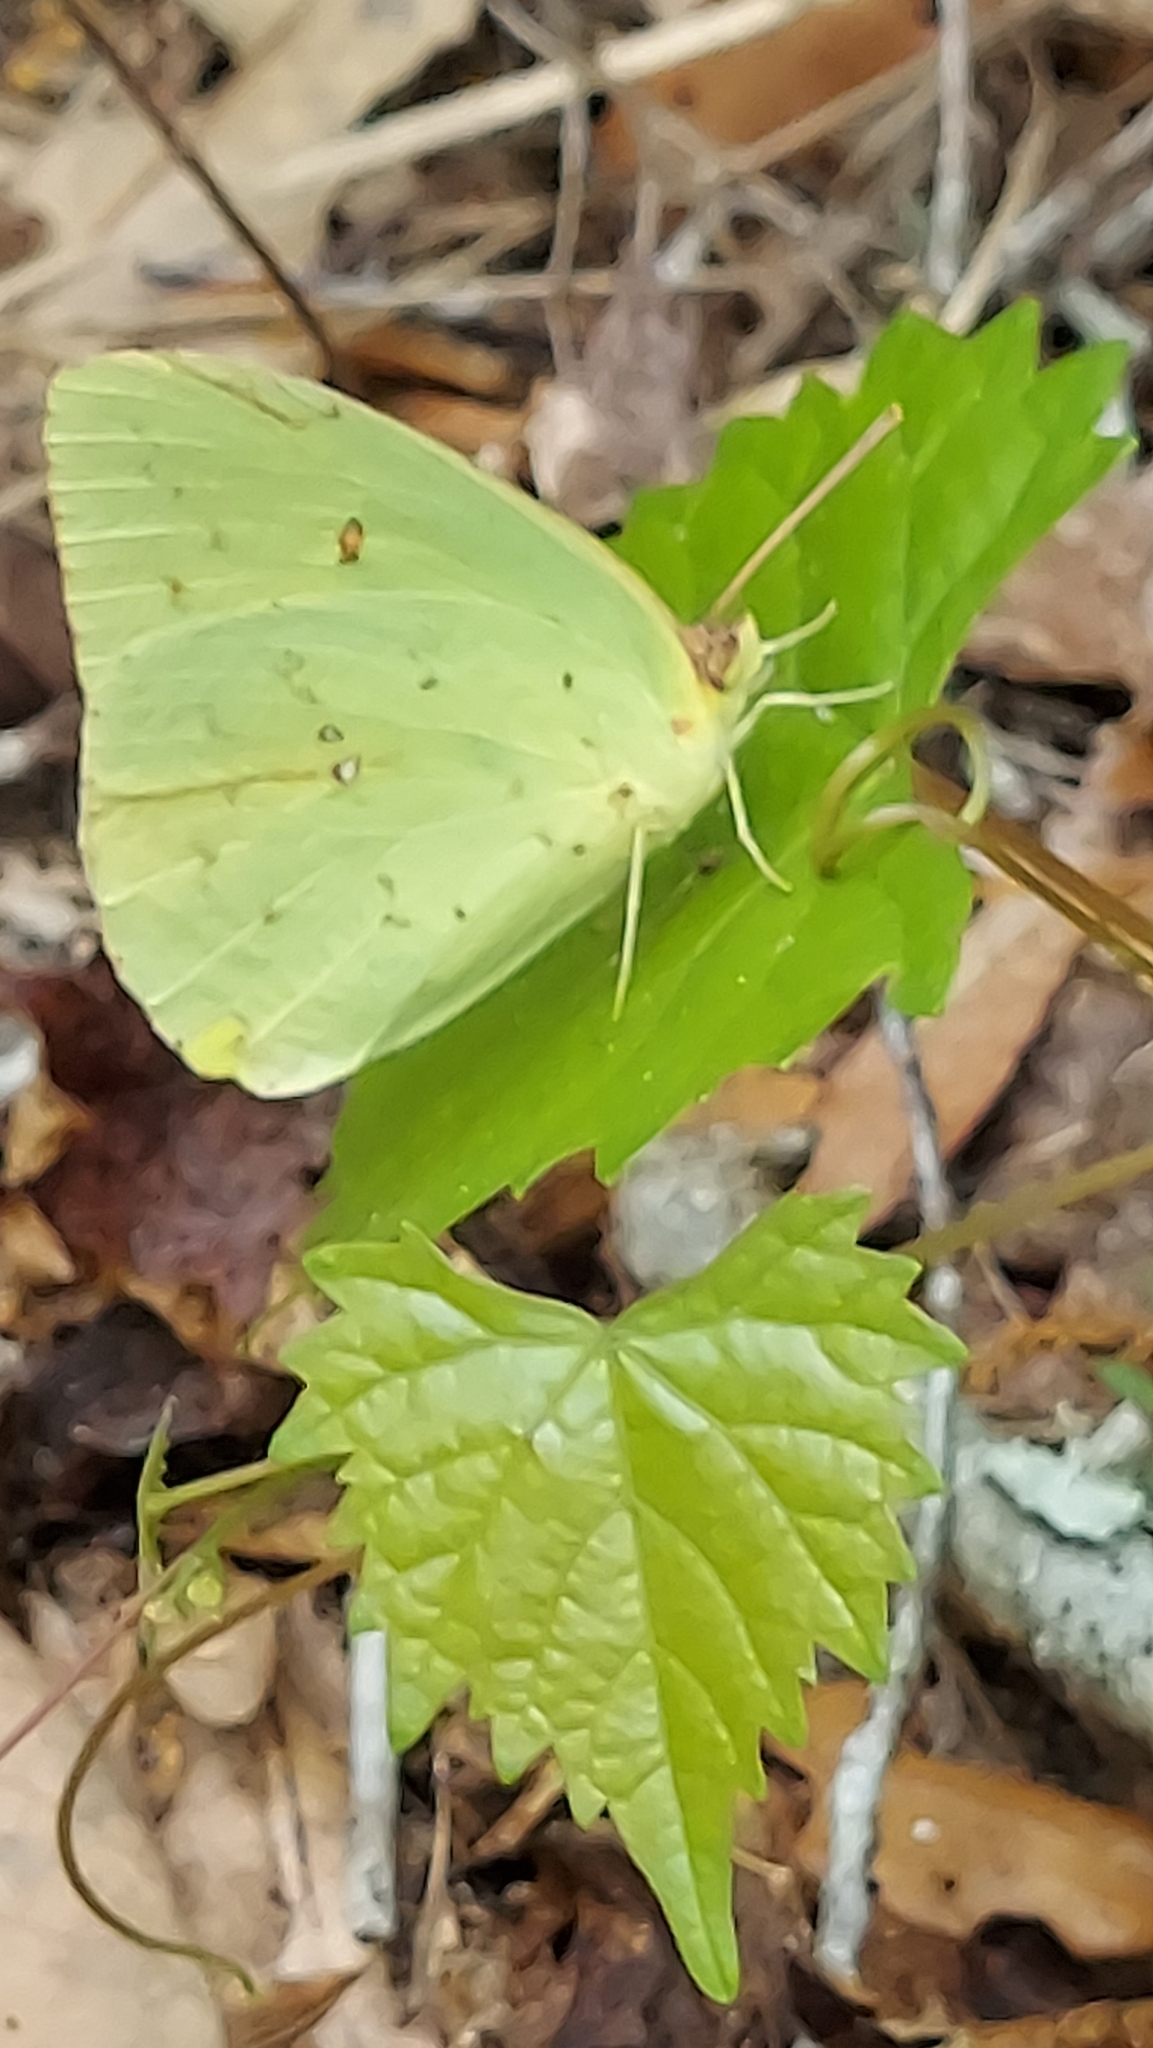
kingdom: Animalia
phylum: Arthropoda
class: Insecta
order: Lepidoptera
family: Pieridae
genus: Phoebis
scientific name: Phoebis sennae
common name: Cloudless sulphur
